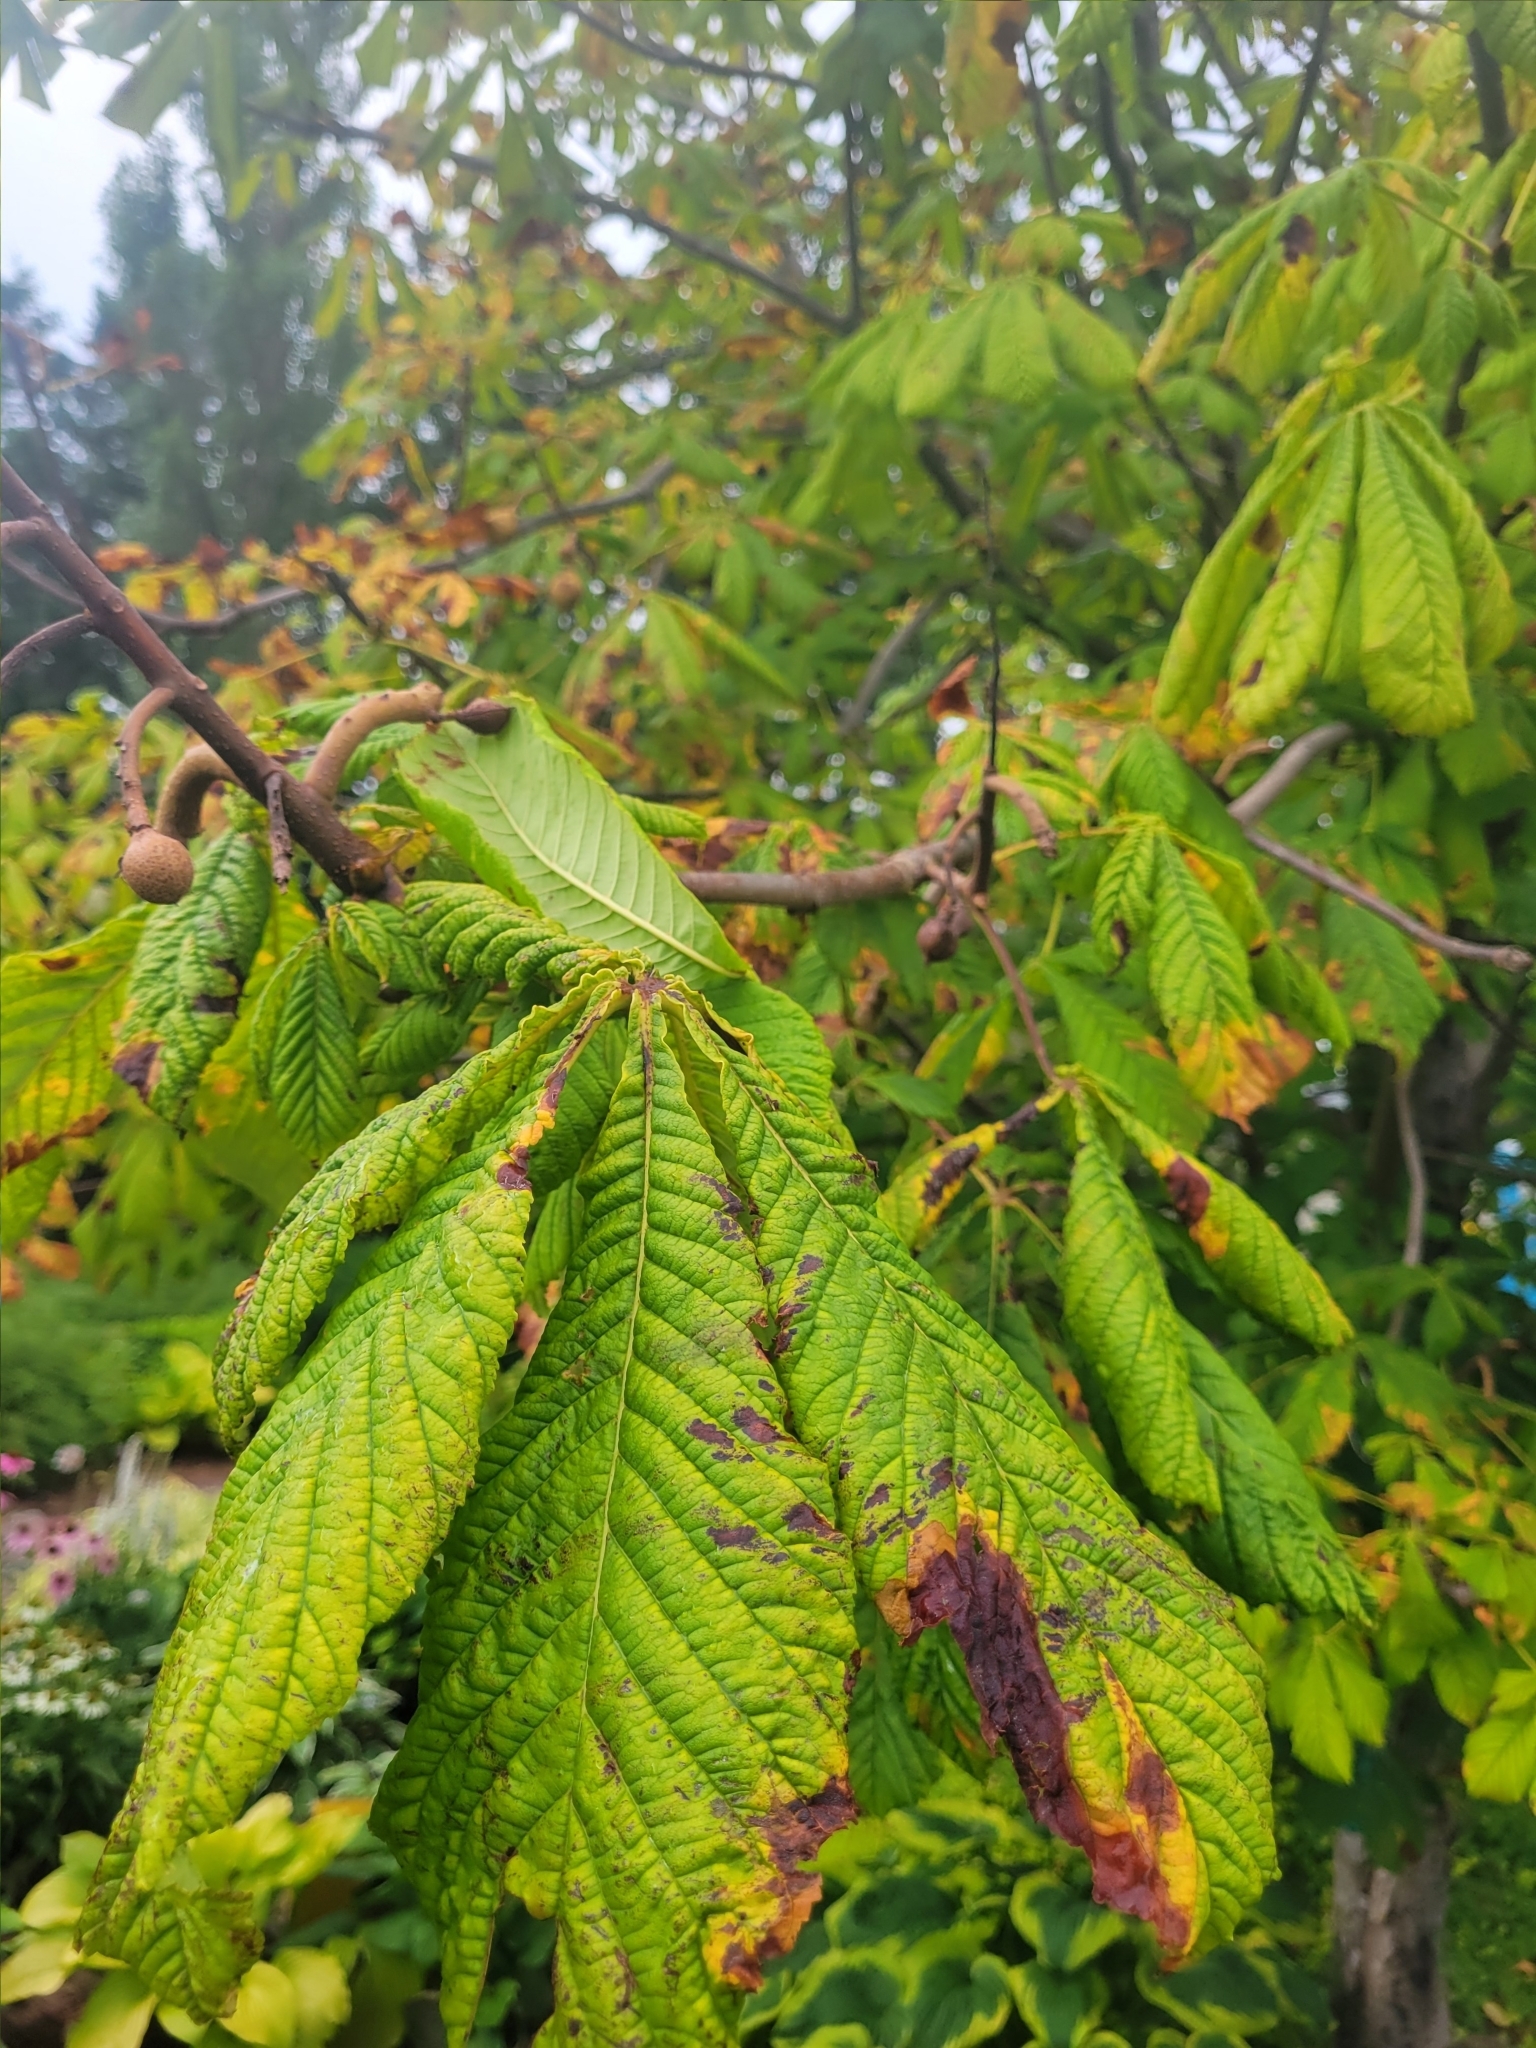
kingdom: Plantae
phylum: Tracheophyta
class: Magnoliopsida
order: Sapindales
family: Sapindaceae
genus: Aesculus
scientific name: Aesculus hippocastanum
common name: Horse-chestnut
